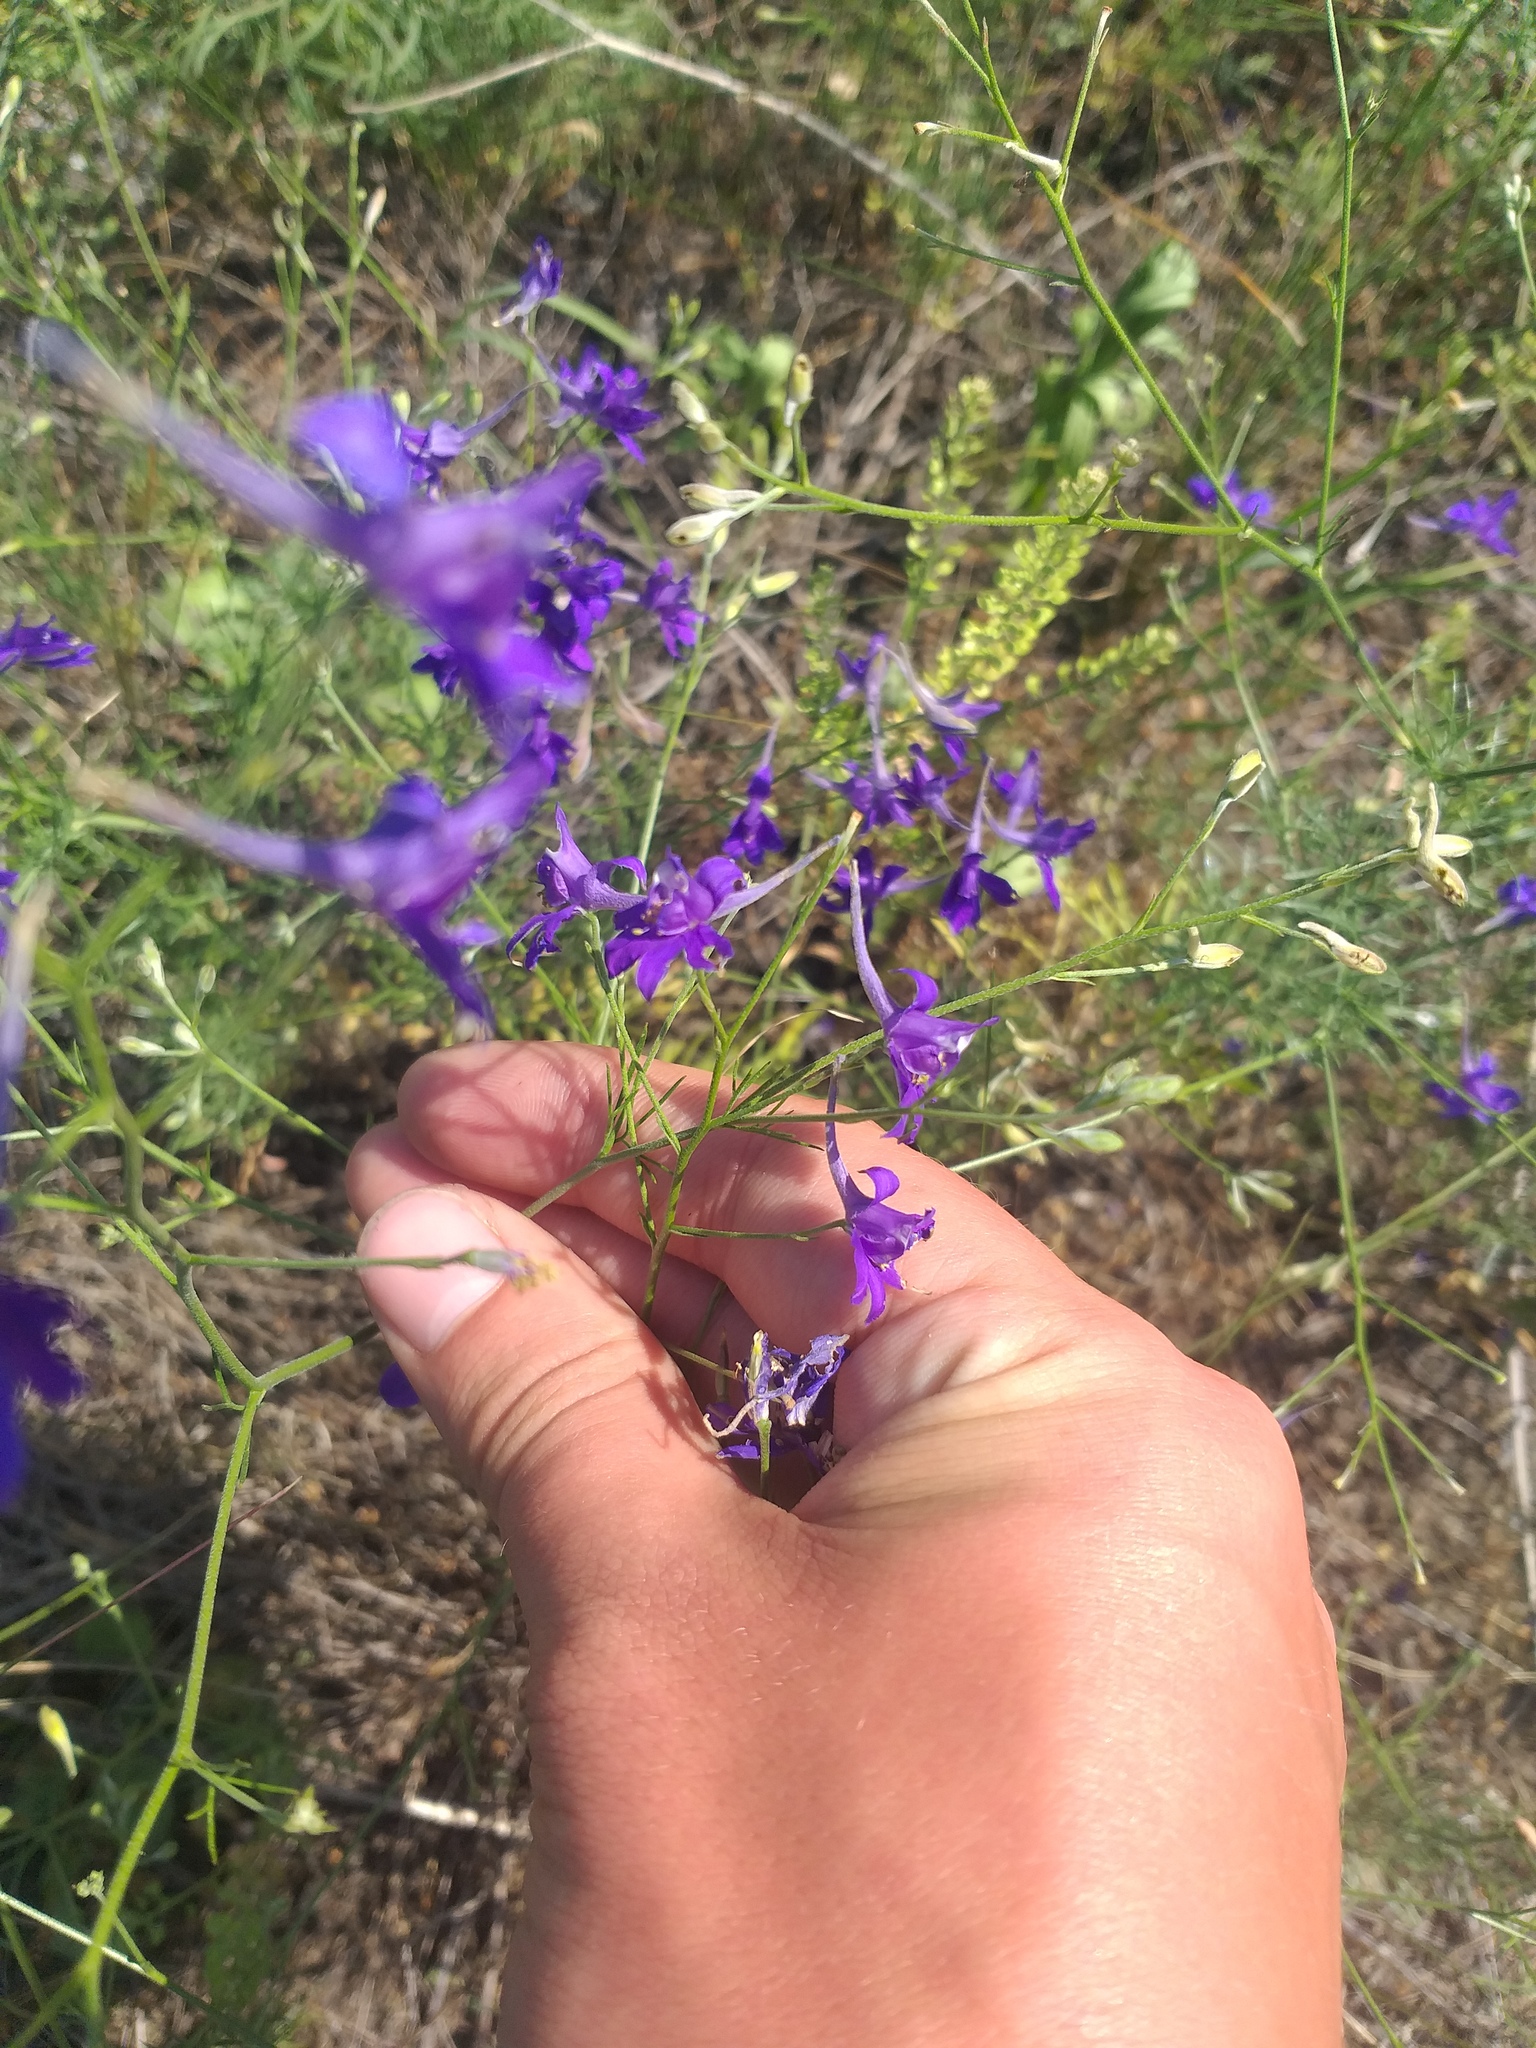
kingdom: Plantae
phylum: Tracheophyta
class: Magnoliopsida
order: Ranunculales
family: Ranunculaceae
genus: Delphinium
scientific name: Delphinium consolida
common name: Branching larkspur
